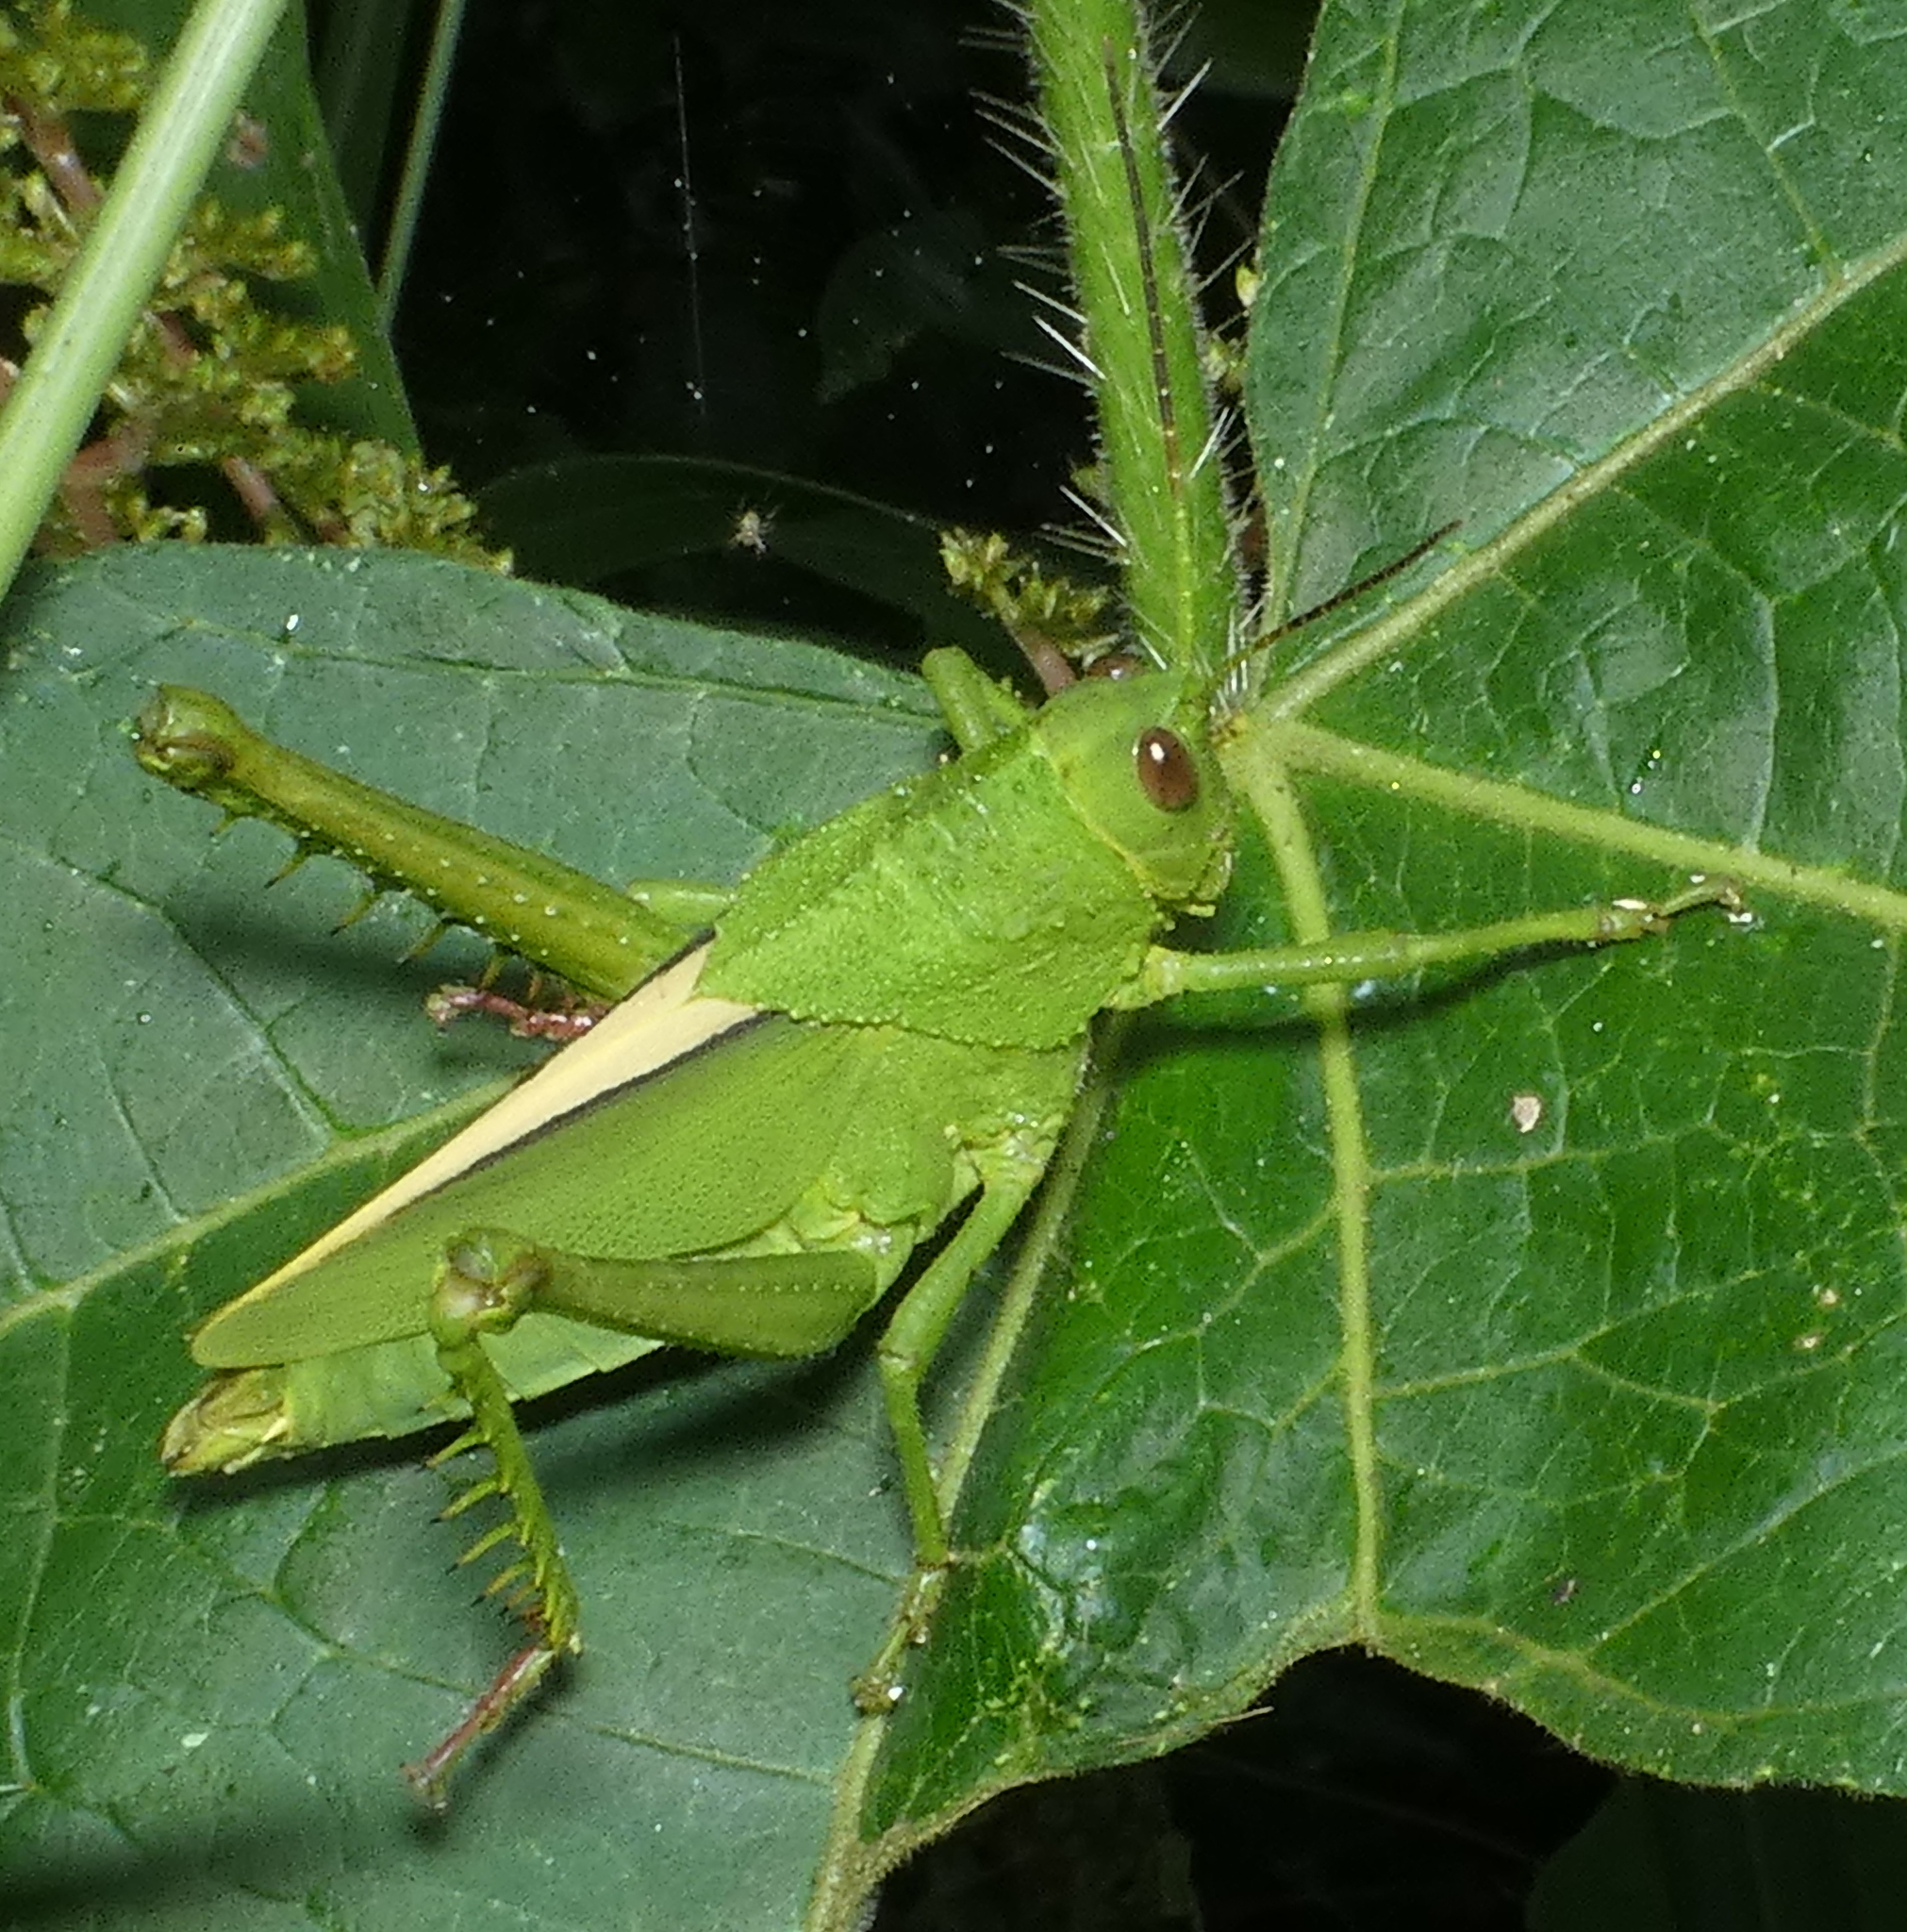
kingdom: Animalia
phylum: Arthropoda
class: Insecta
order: Orthoptera
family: Romaleidae
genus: Agriacris
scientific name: Agriacris auripennis
